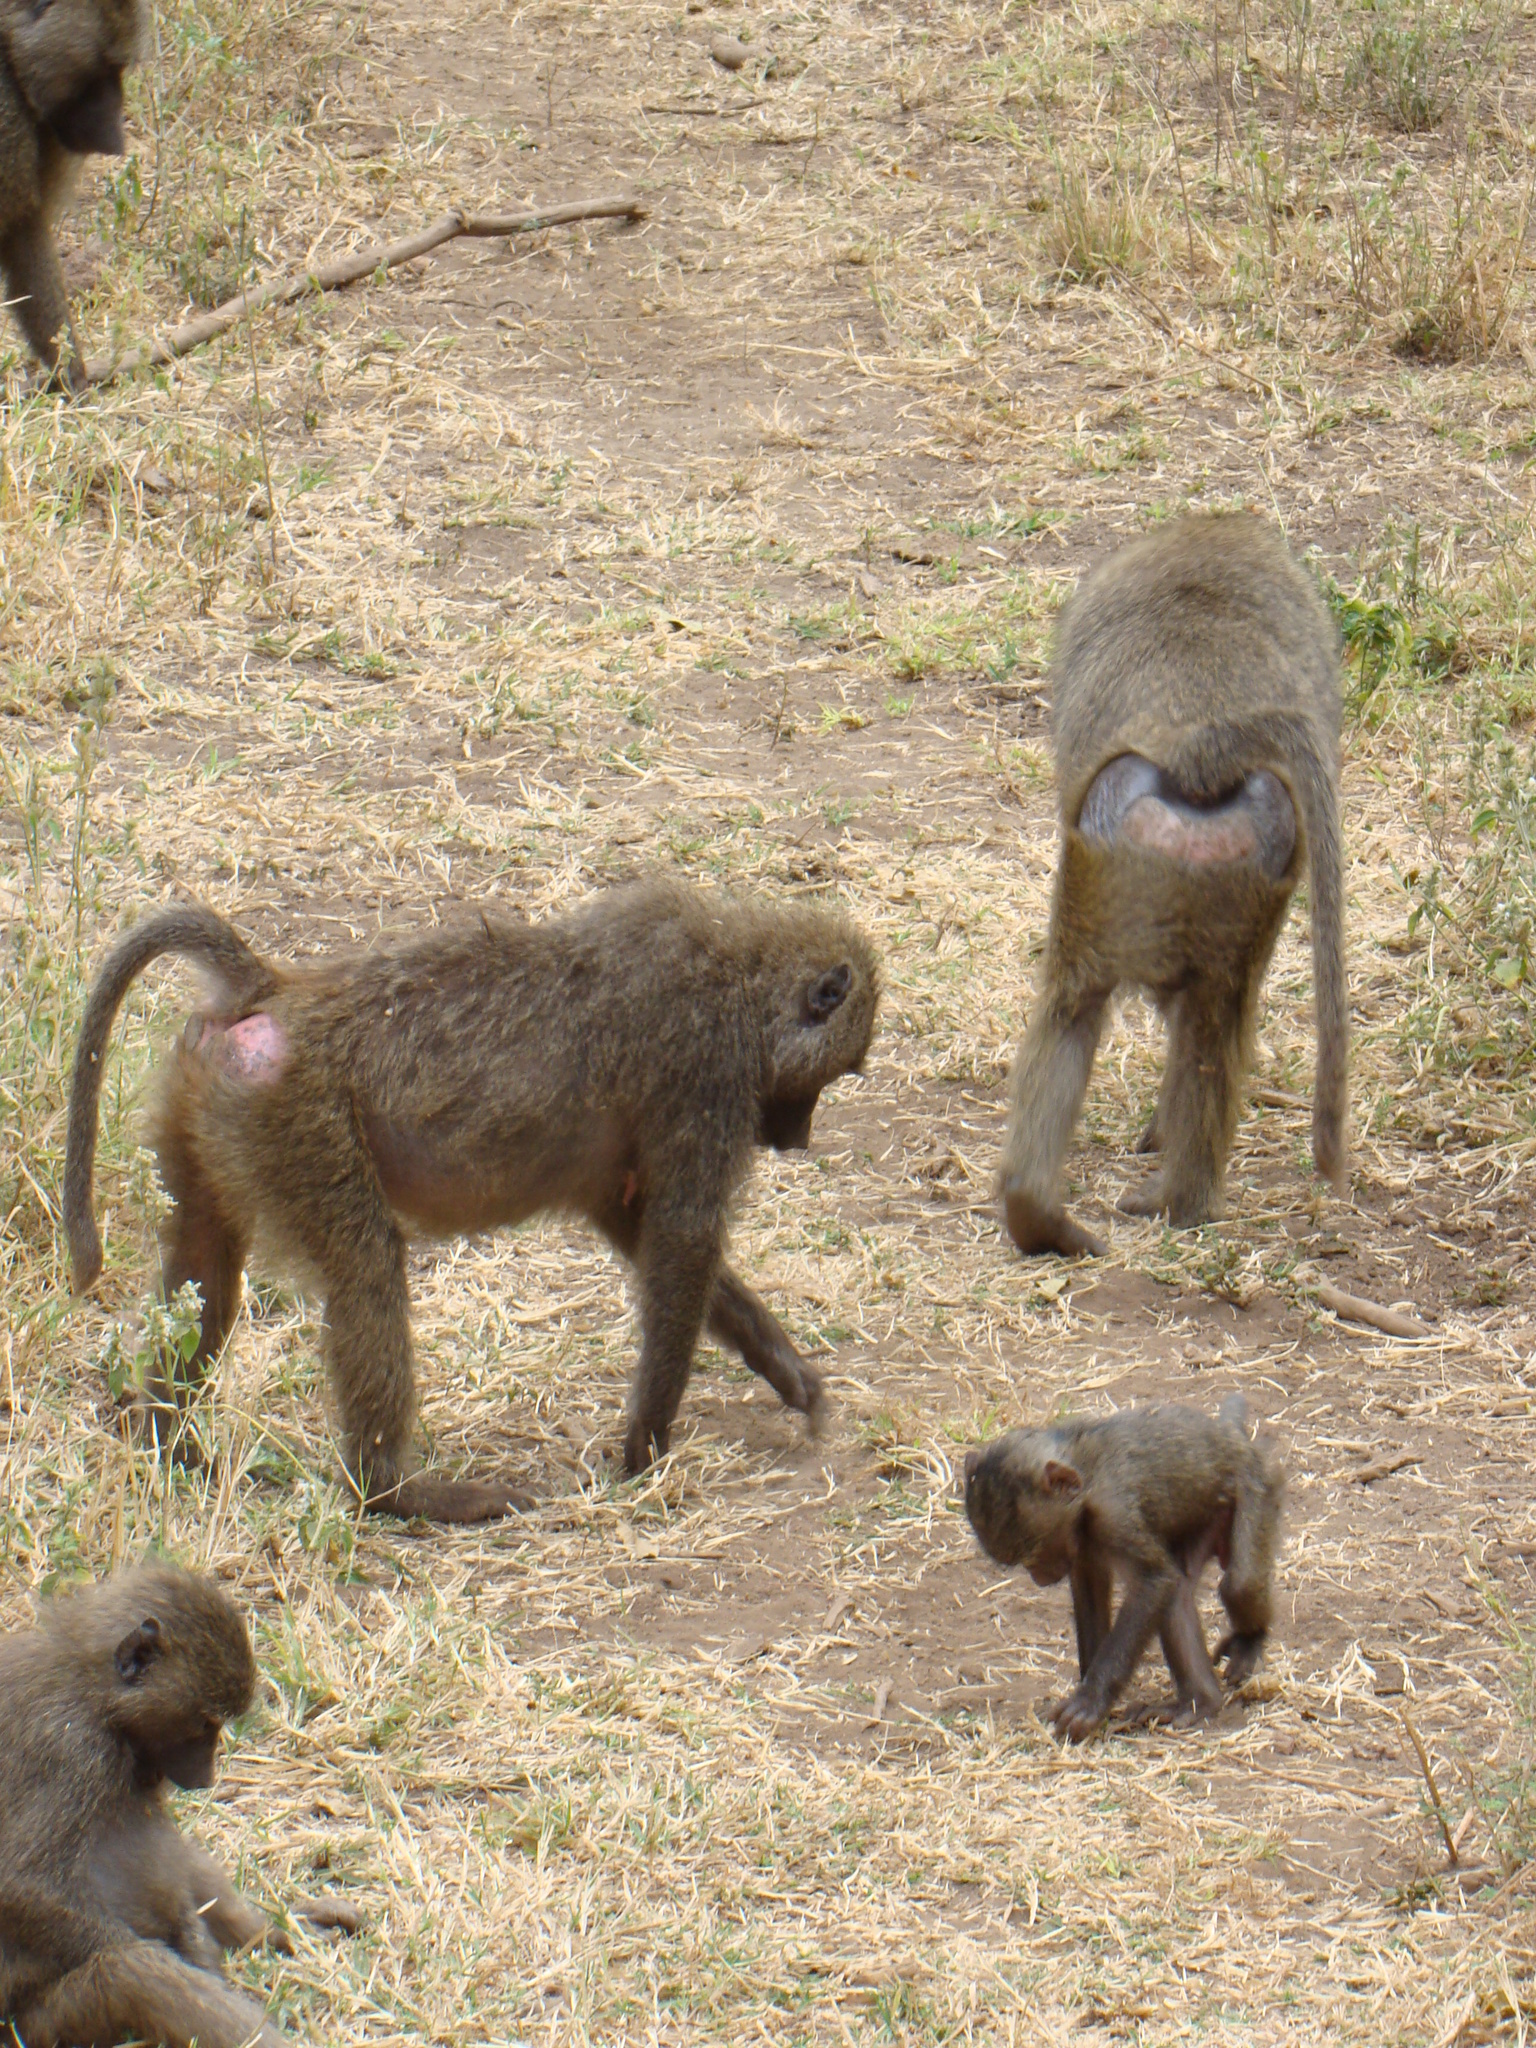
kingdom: Animalia
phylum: Chordata
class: Mammalia
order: Primates
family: Cercopithecidae
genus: Papio
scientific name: Papio anubis
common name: Olive baboon
